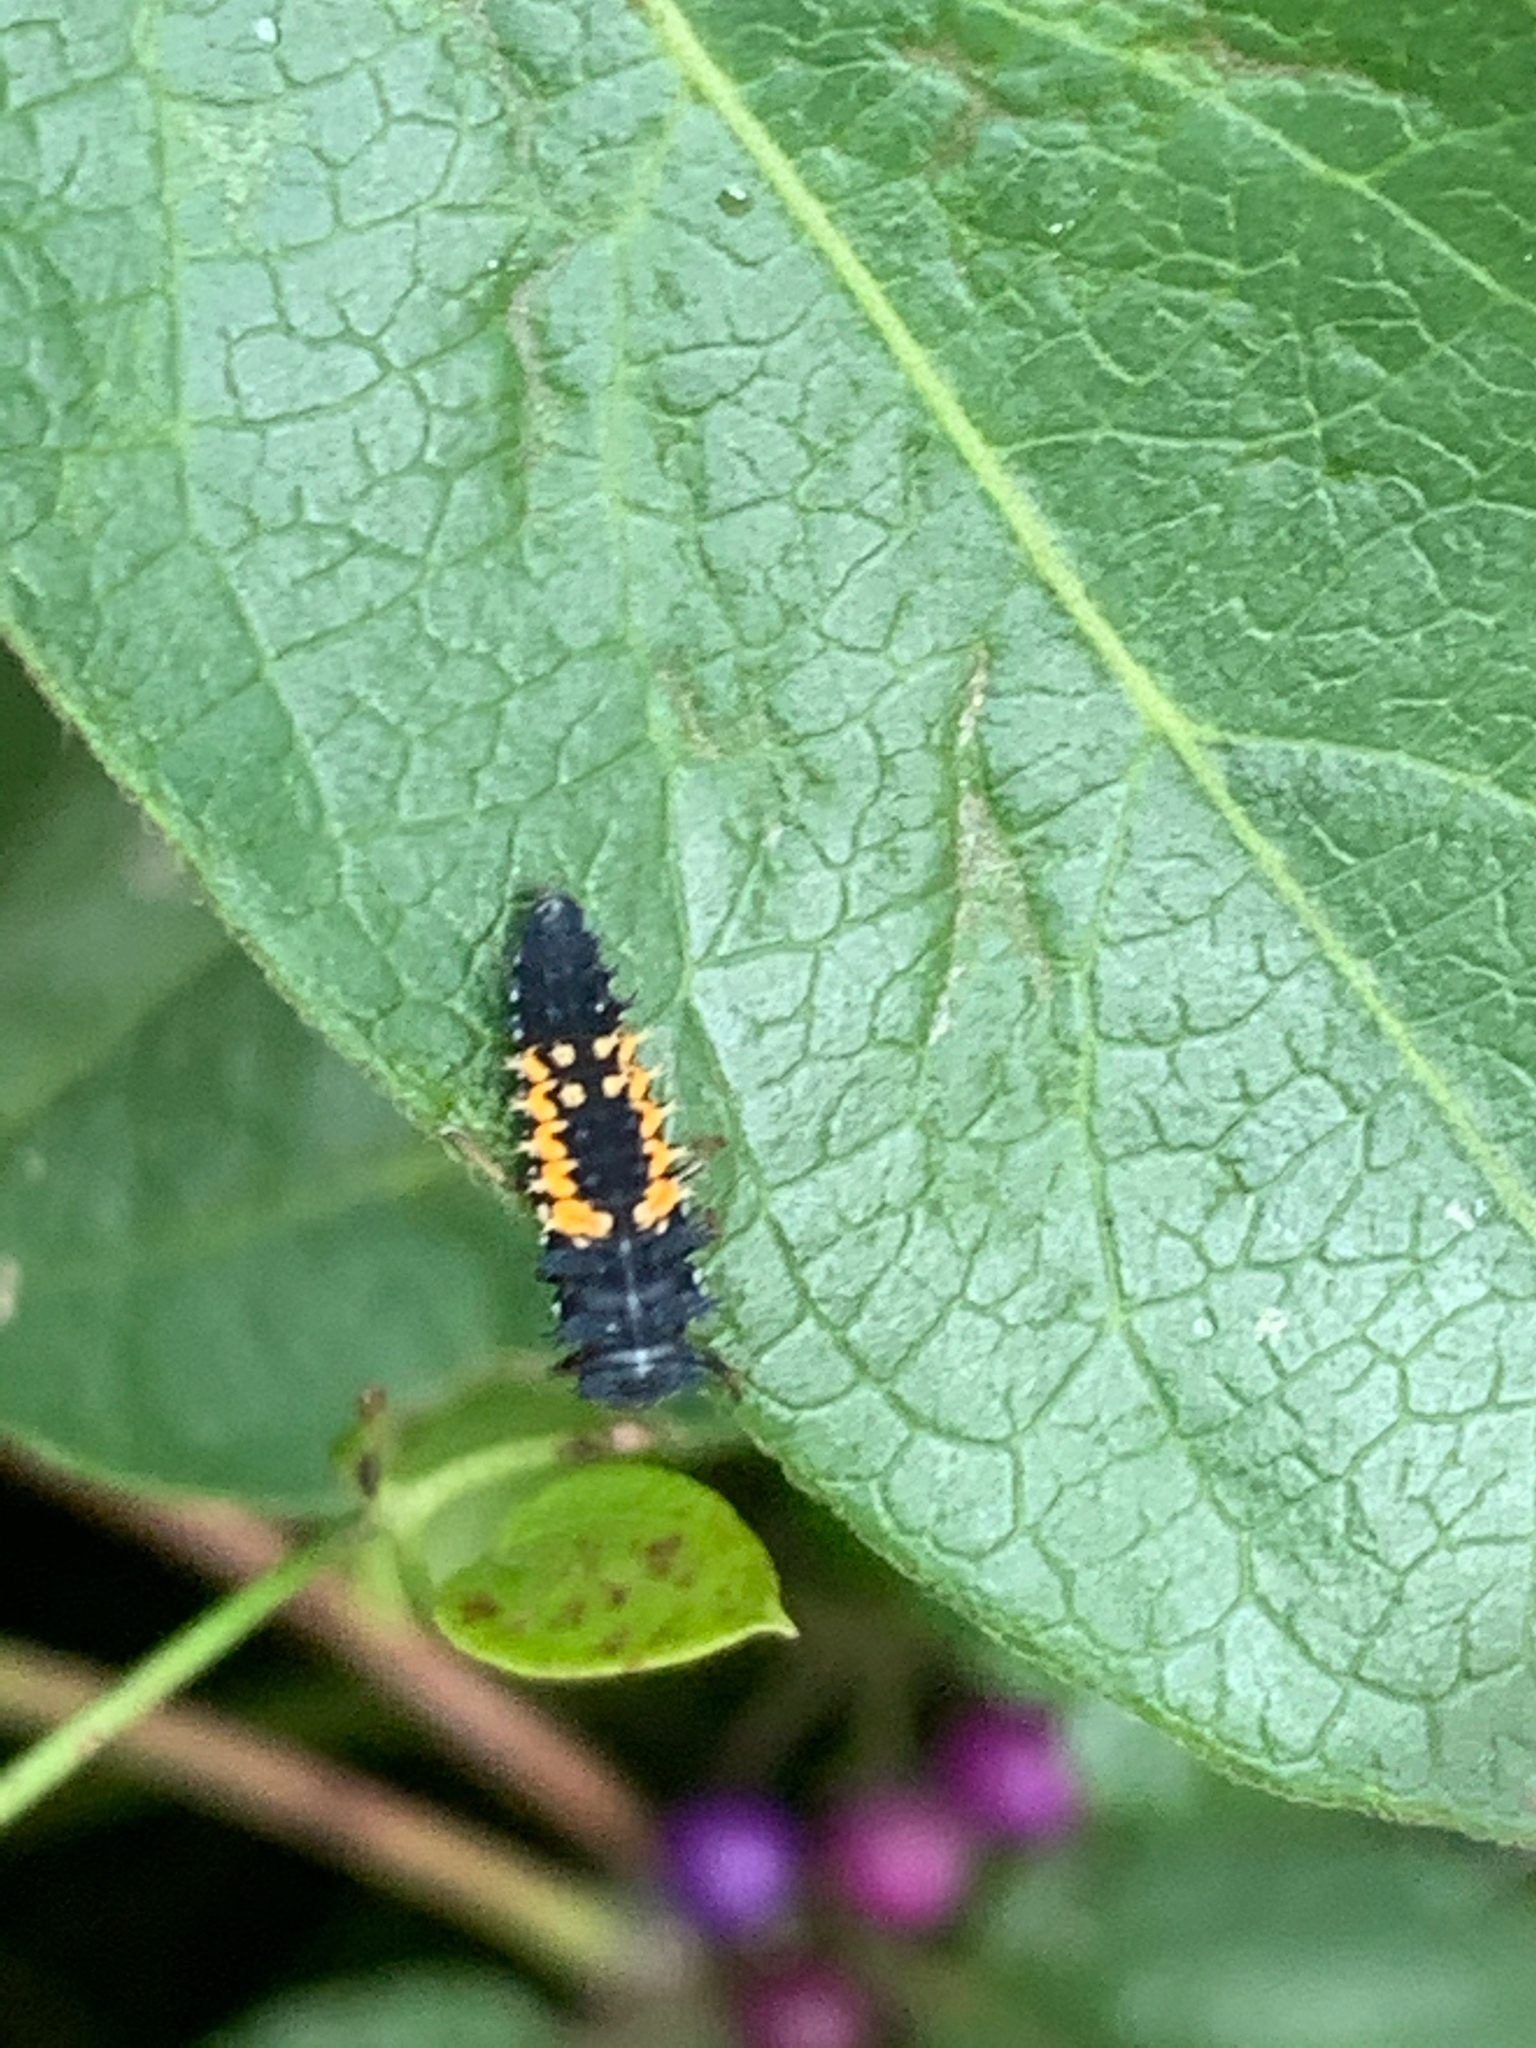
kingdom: Animalia
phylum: Arthropoda
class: Insecta
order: Coleoptera
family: Coccinellidae
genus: Harmonia
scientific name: Harmonia axyridis
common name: Harlequin ladybird
